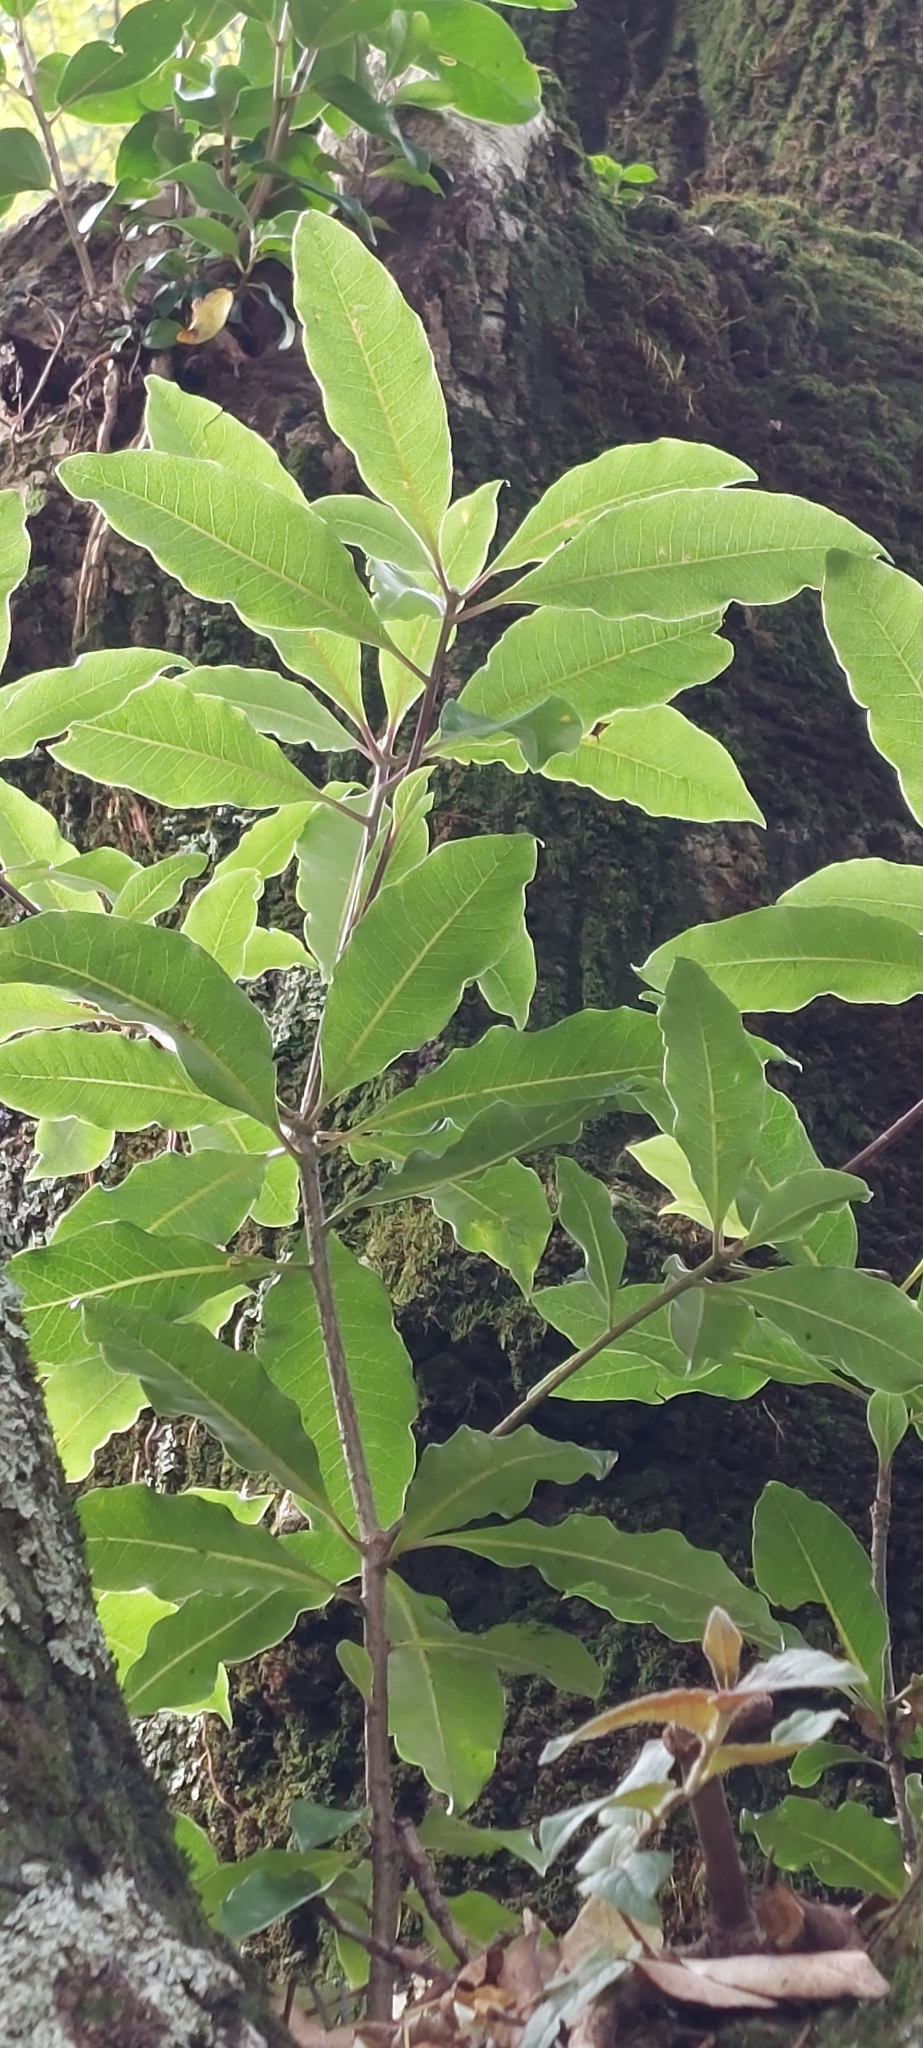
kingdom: Plantae
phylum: Tracheophyta
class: Magnoliopsida
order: Apiales
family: Pittosporaceae
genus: Pittosporum
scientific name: Pittosporum undulatum
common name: Australian cheesewood
